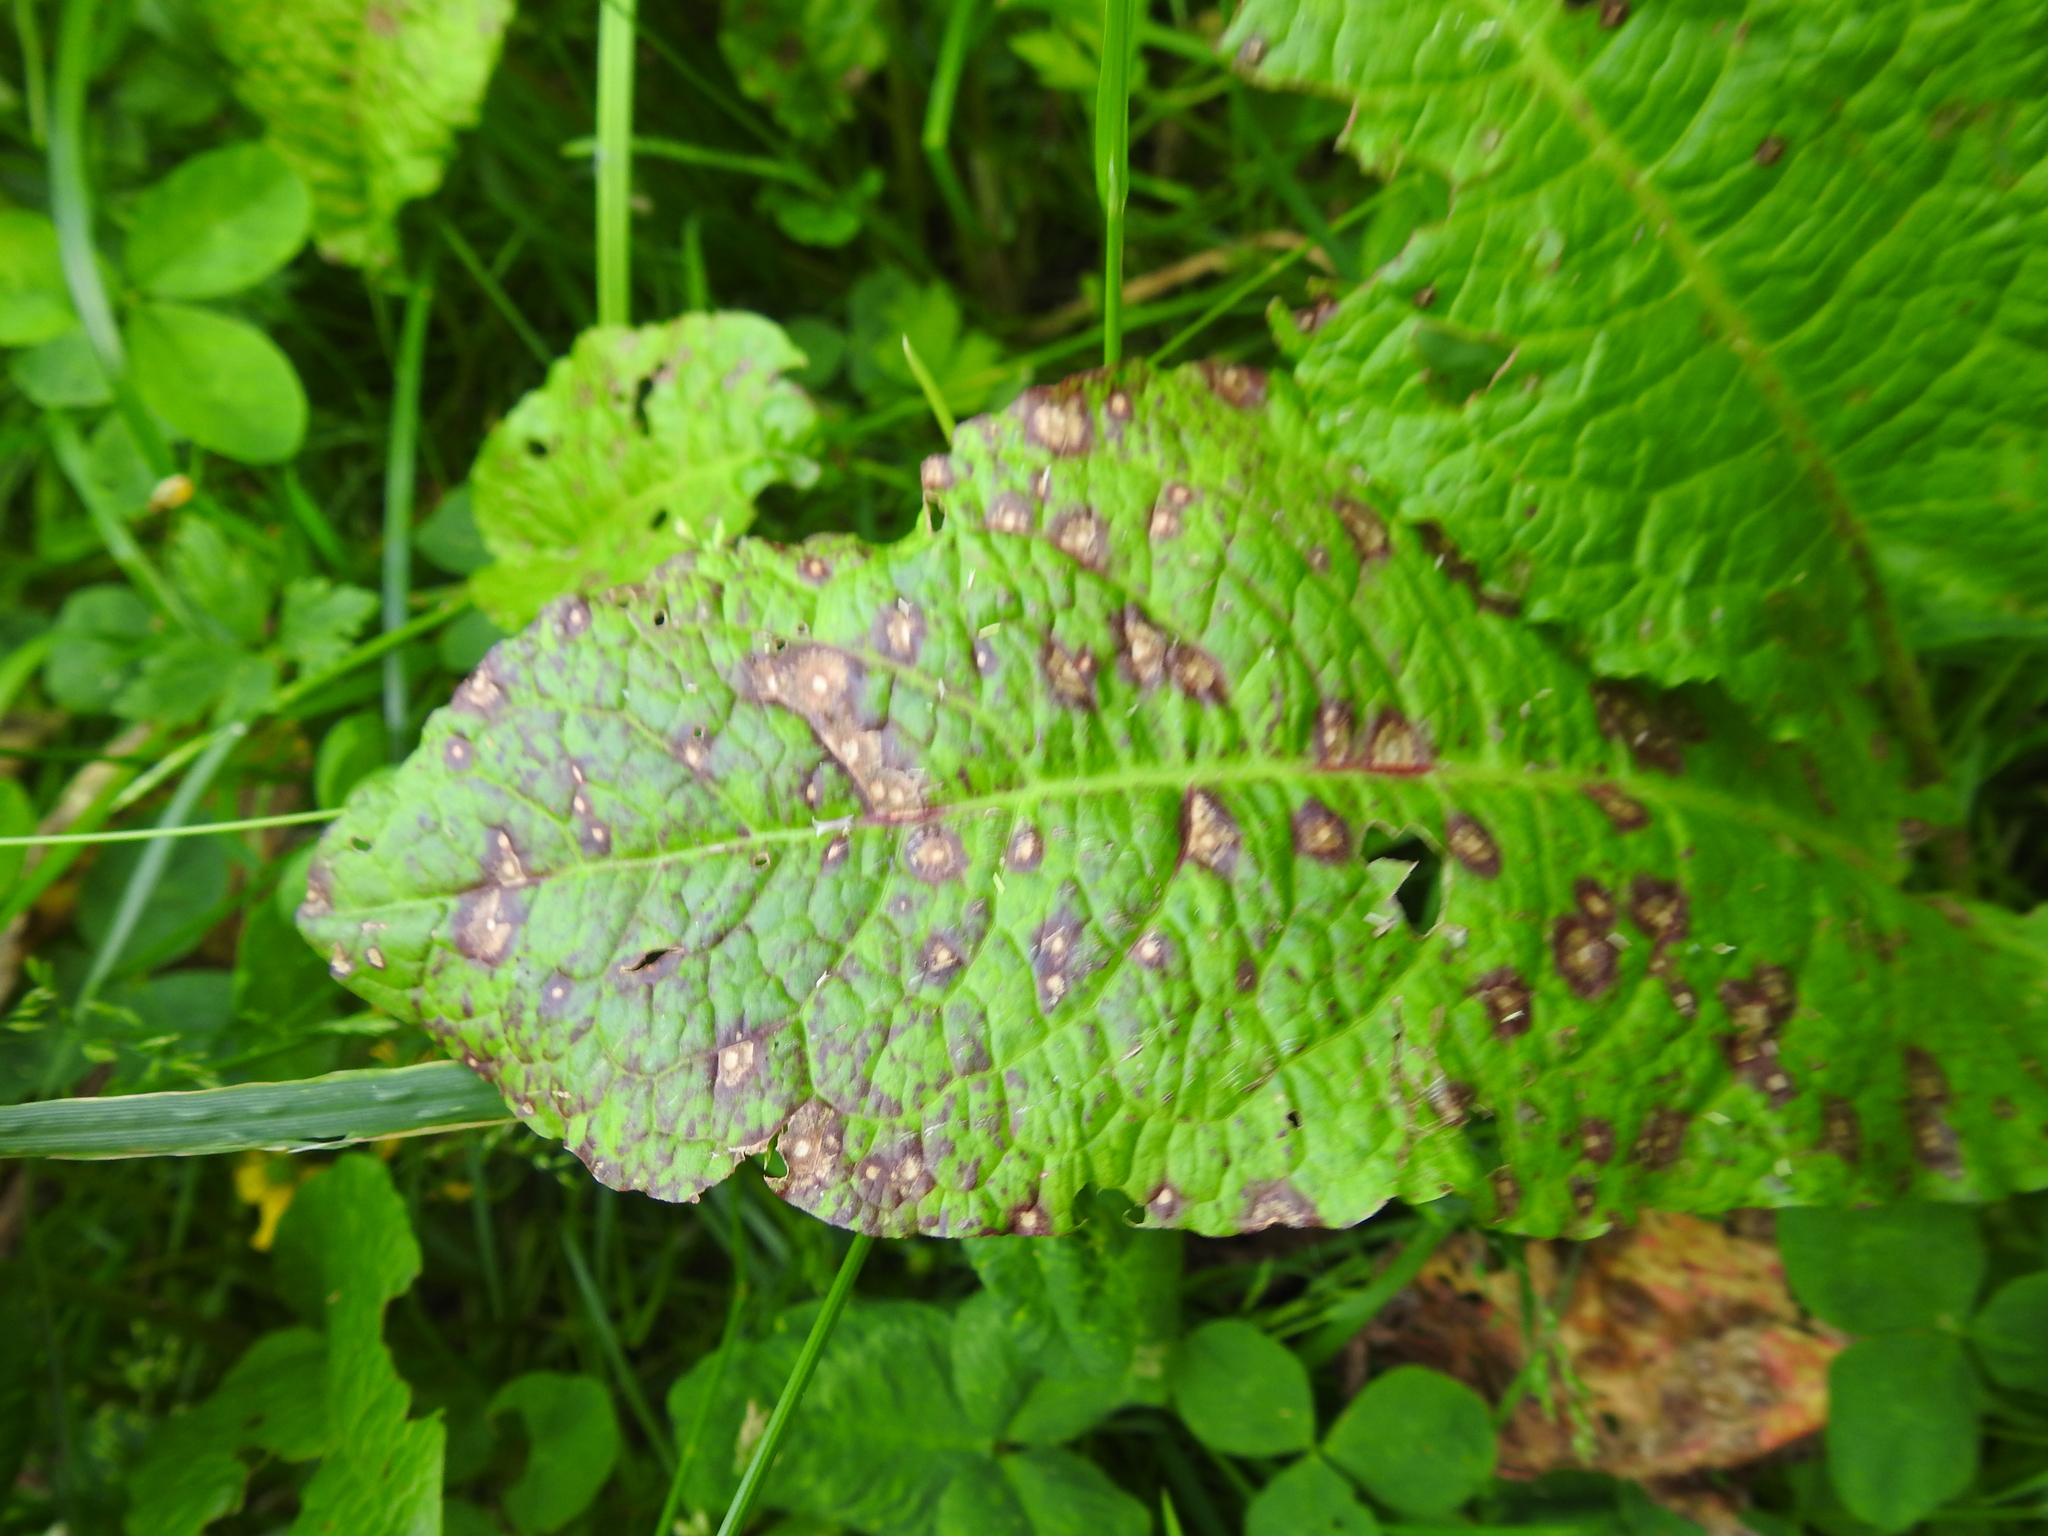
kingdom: Fungi
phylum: Ascomycota
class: Dothideomycetes
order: Mycosphaerellales
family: Mycosphaerellaceae
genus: Ramularia
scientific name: Ramularia rubella
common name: Red dock spot
